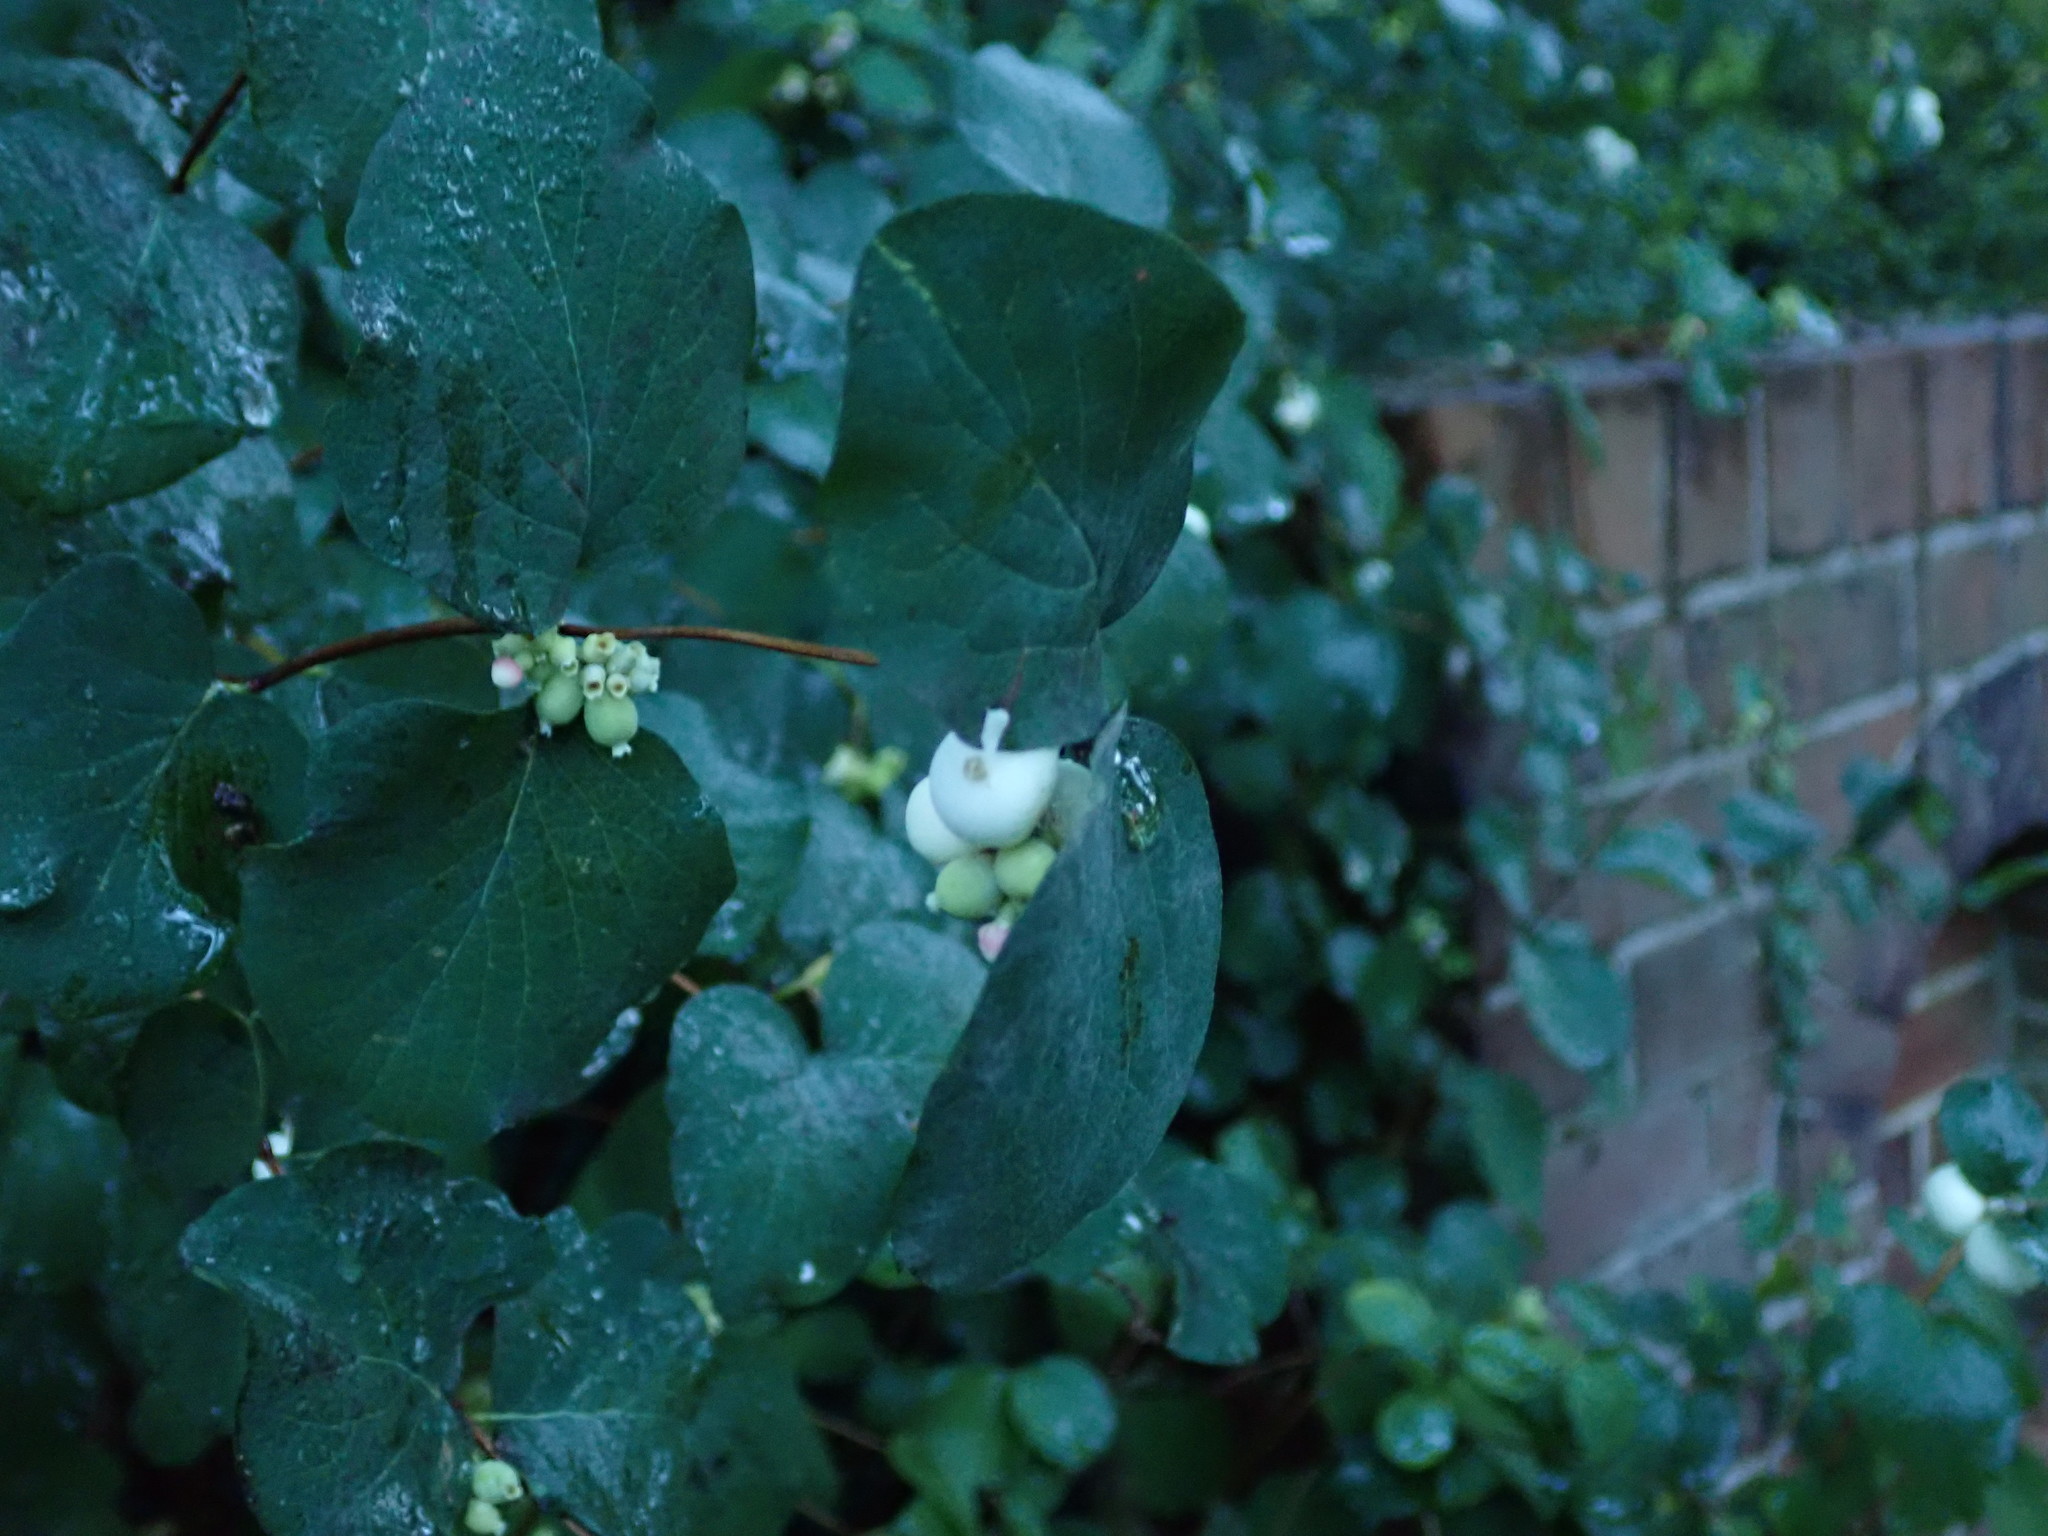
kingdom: Plantae
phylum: Tracheophyta
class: Magnoliopsida
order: Dipsacales
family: Caprifoliaceae
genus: Symphoricarpos
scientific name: Symphoricarpos albus
